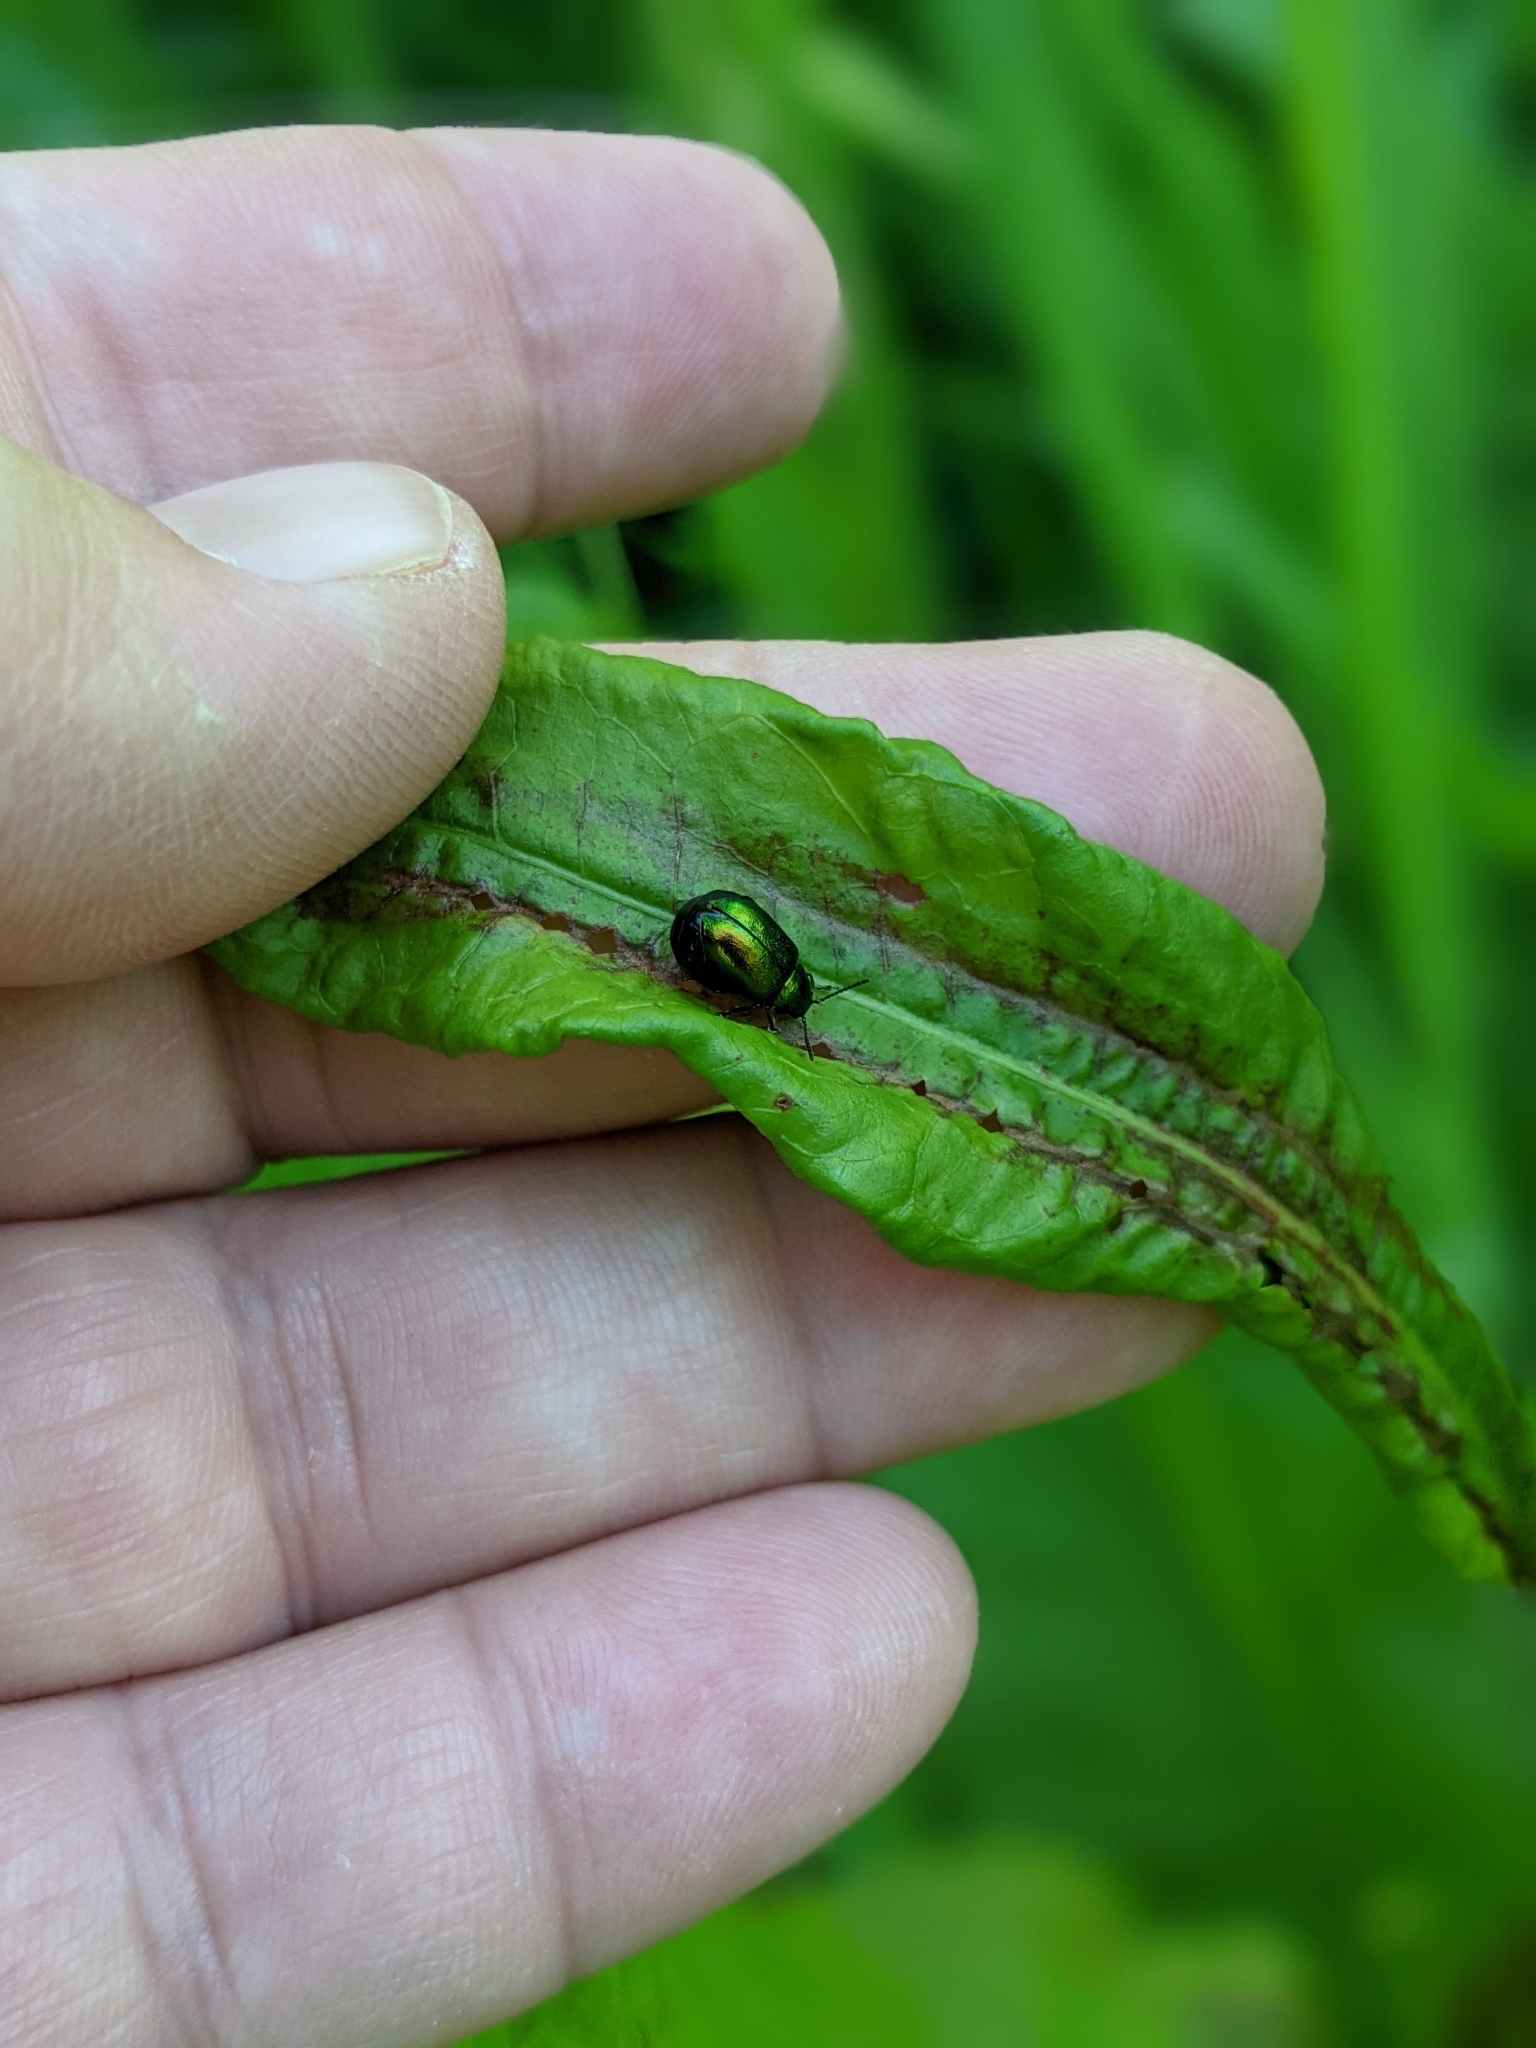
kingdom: Animalia
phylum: Arthropoda
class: Insecta
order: Coleoptera
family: Chrysomelidae
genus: Gastrophysa
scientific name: Gastrophysa viridula
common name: Green dock beetle
